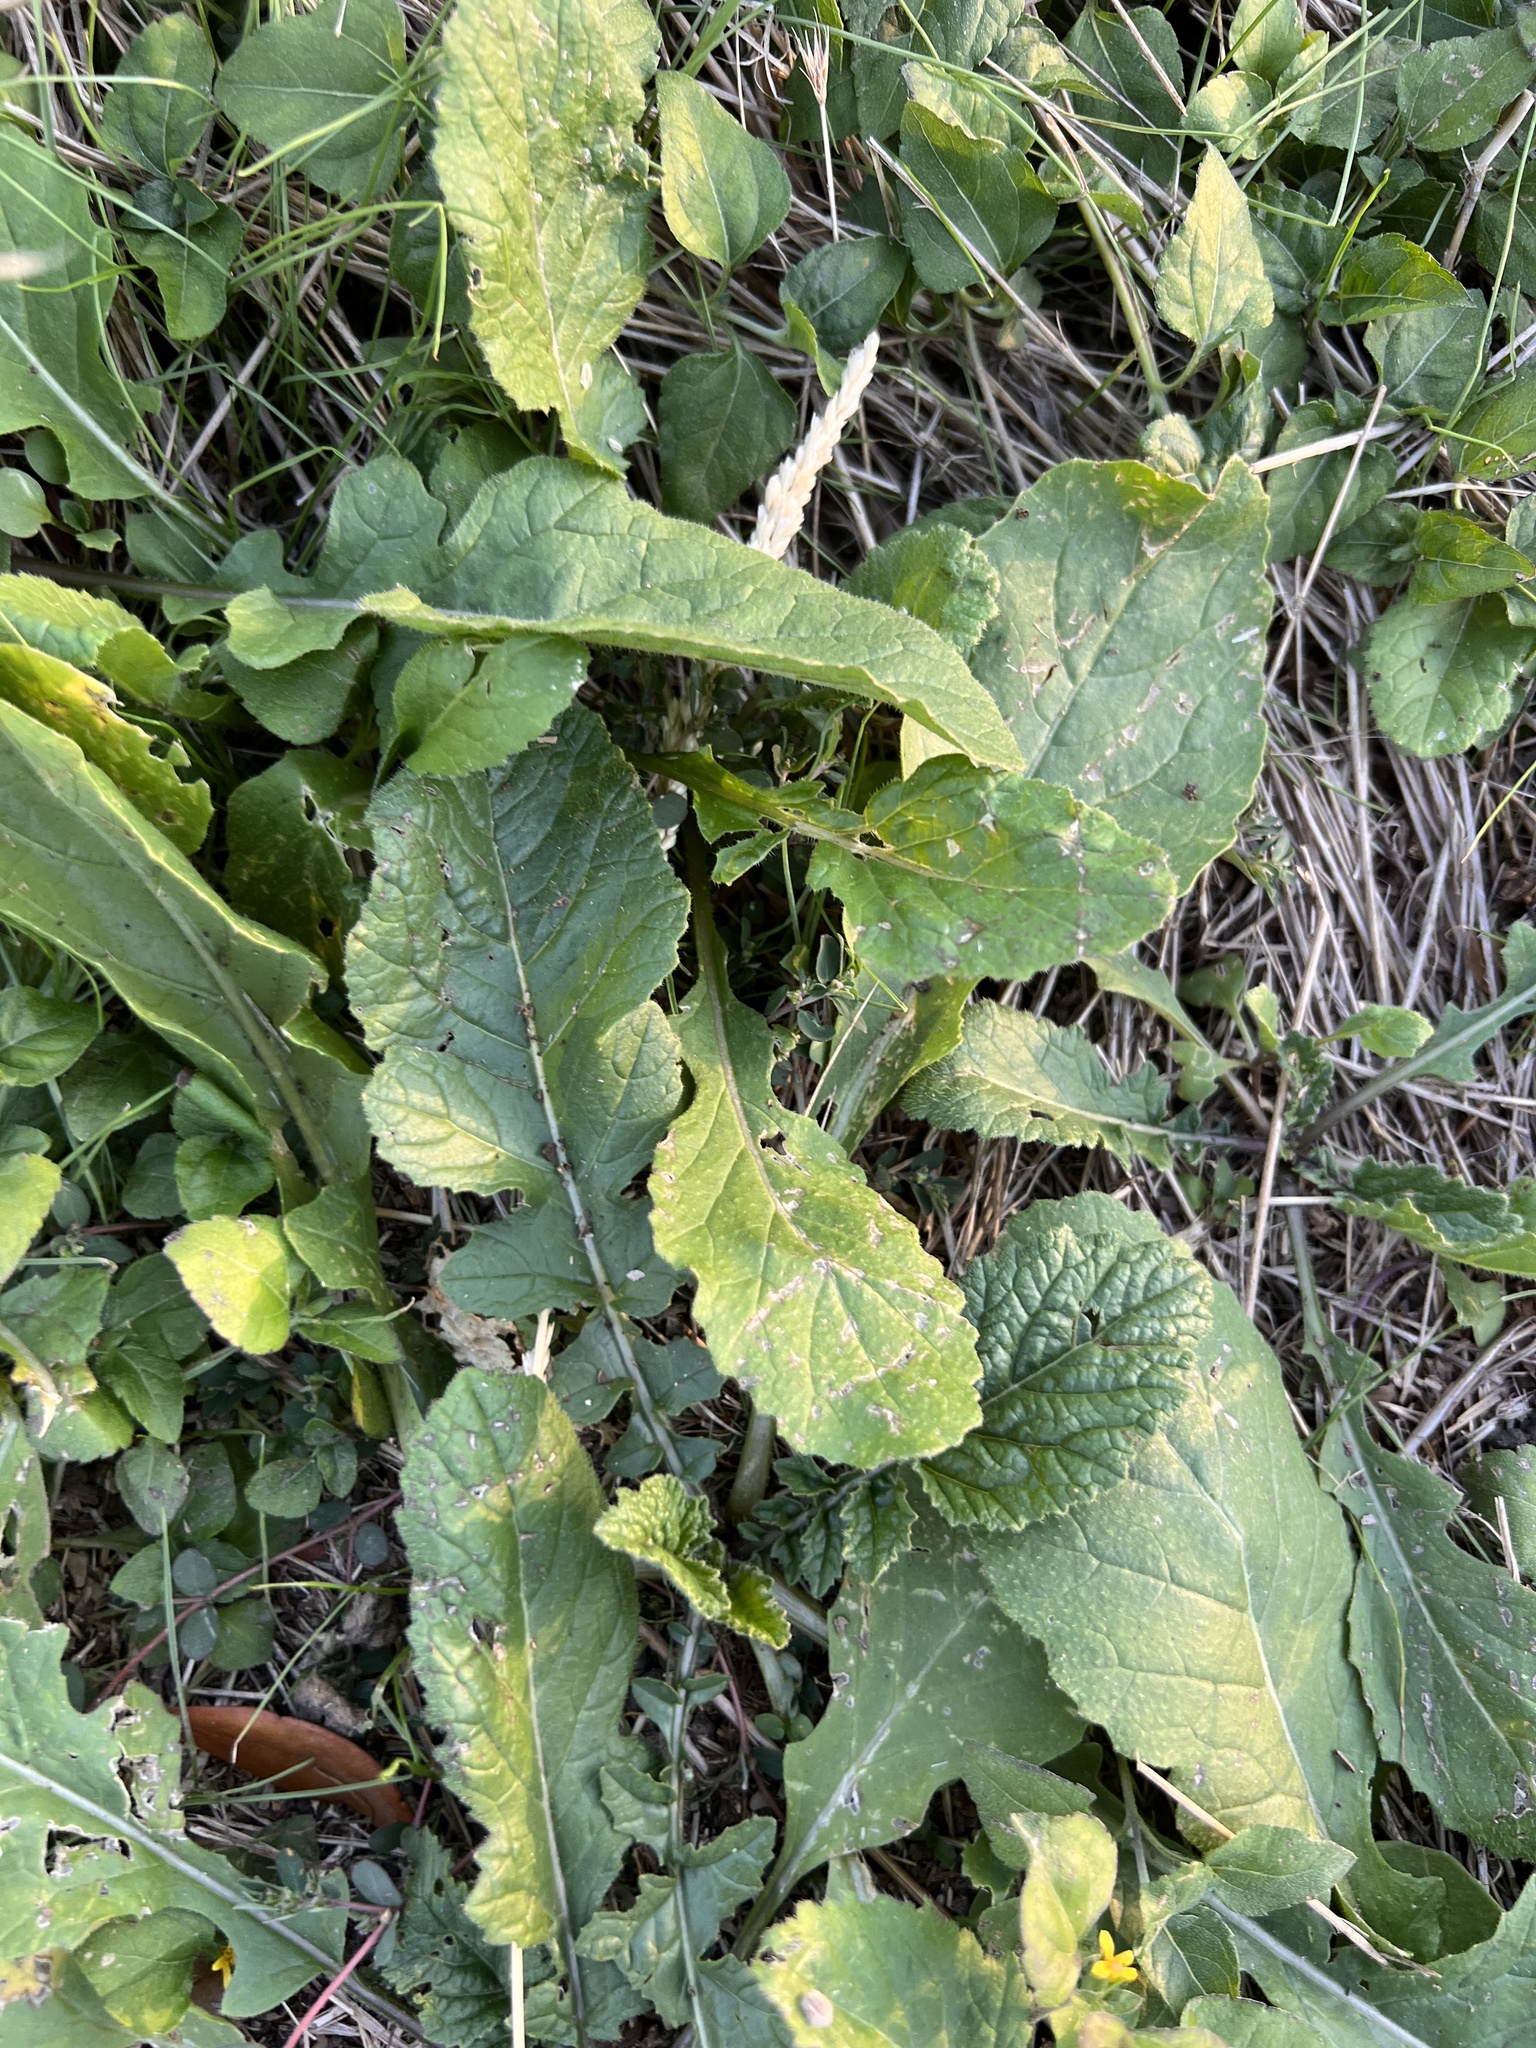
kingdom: Plantae
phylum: Tracheophyta
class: Magnoliopsida
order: Brassicales
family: Brassicaceae
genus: Rapistrum
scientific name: Rapistrum rugosum
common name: Annual bastardcabbage
